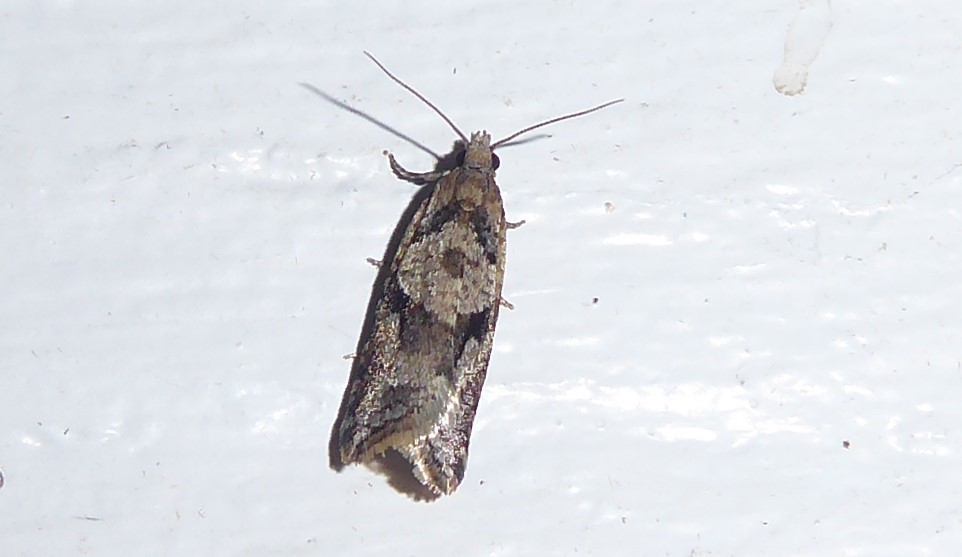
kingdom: Animalia
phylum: Arthropoda
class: Insecta
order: Lepidoptera
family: Tortricidae
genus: Capua
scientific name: Capua semiferana
